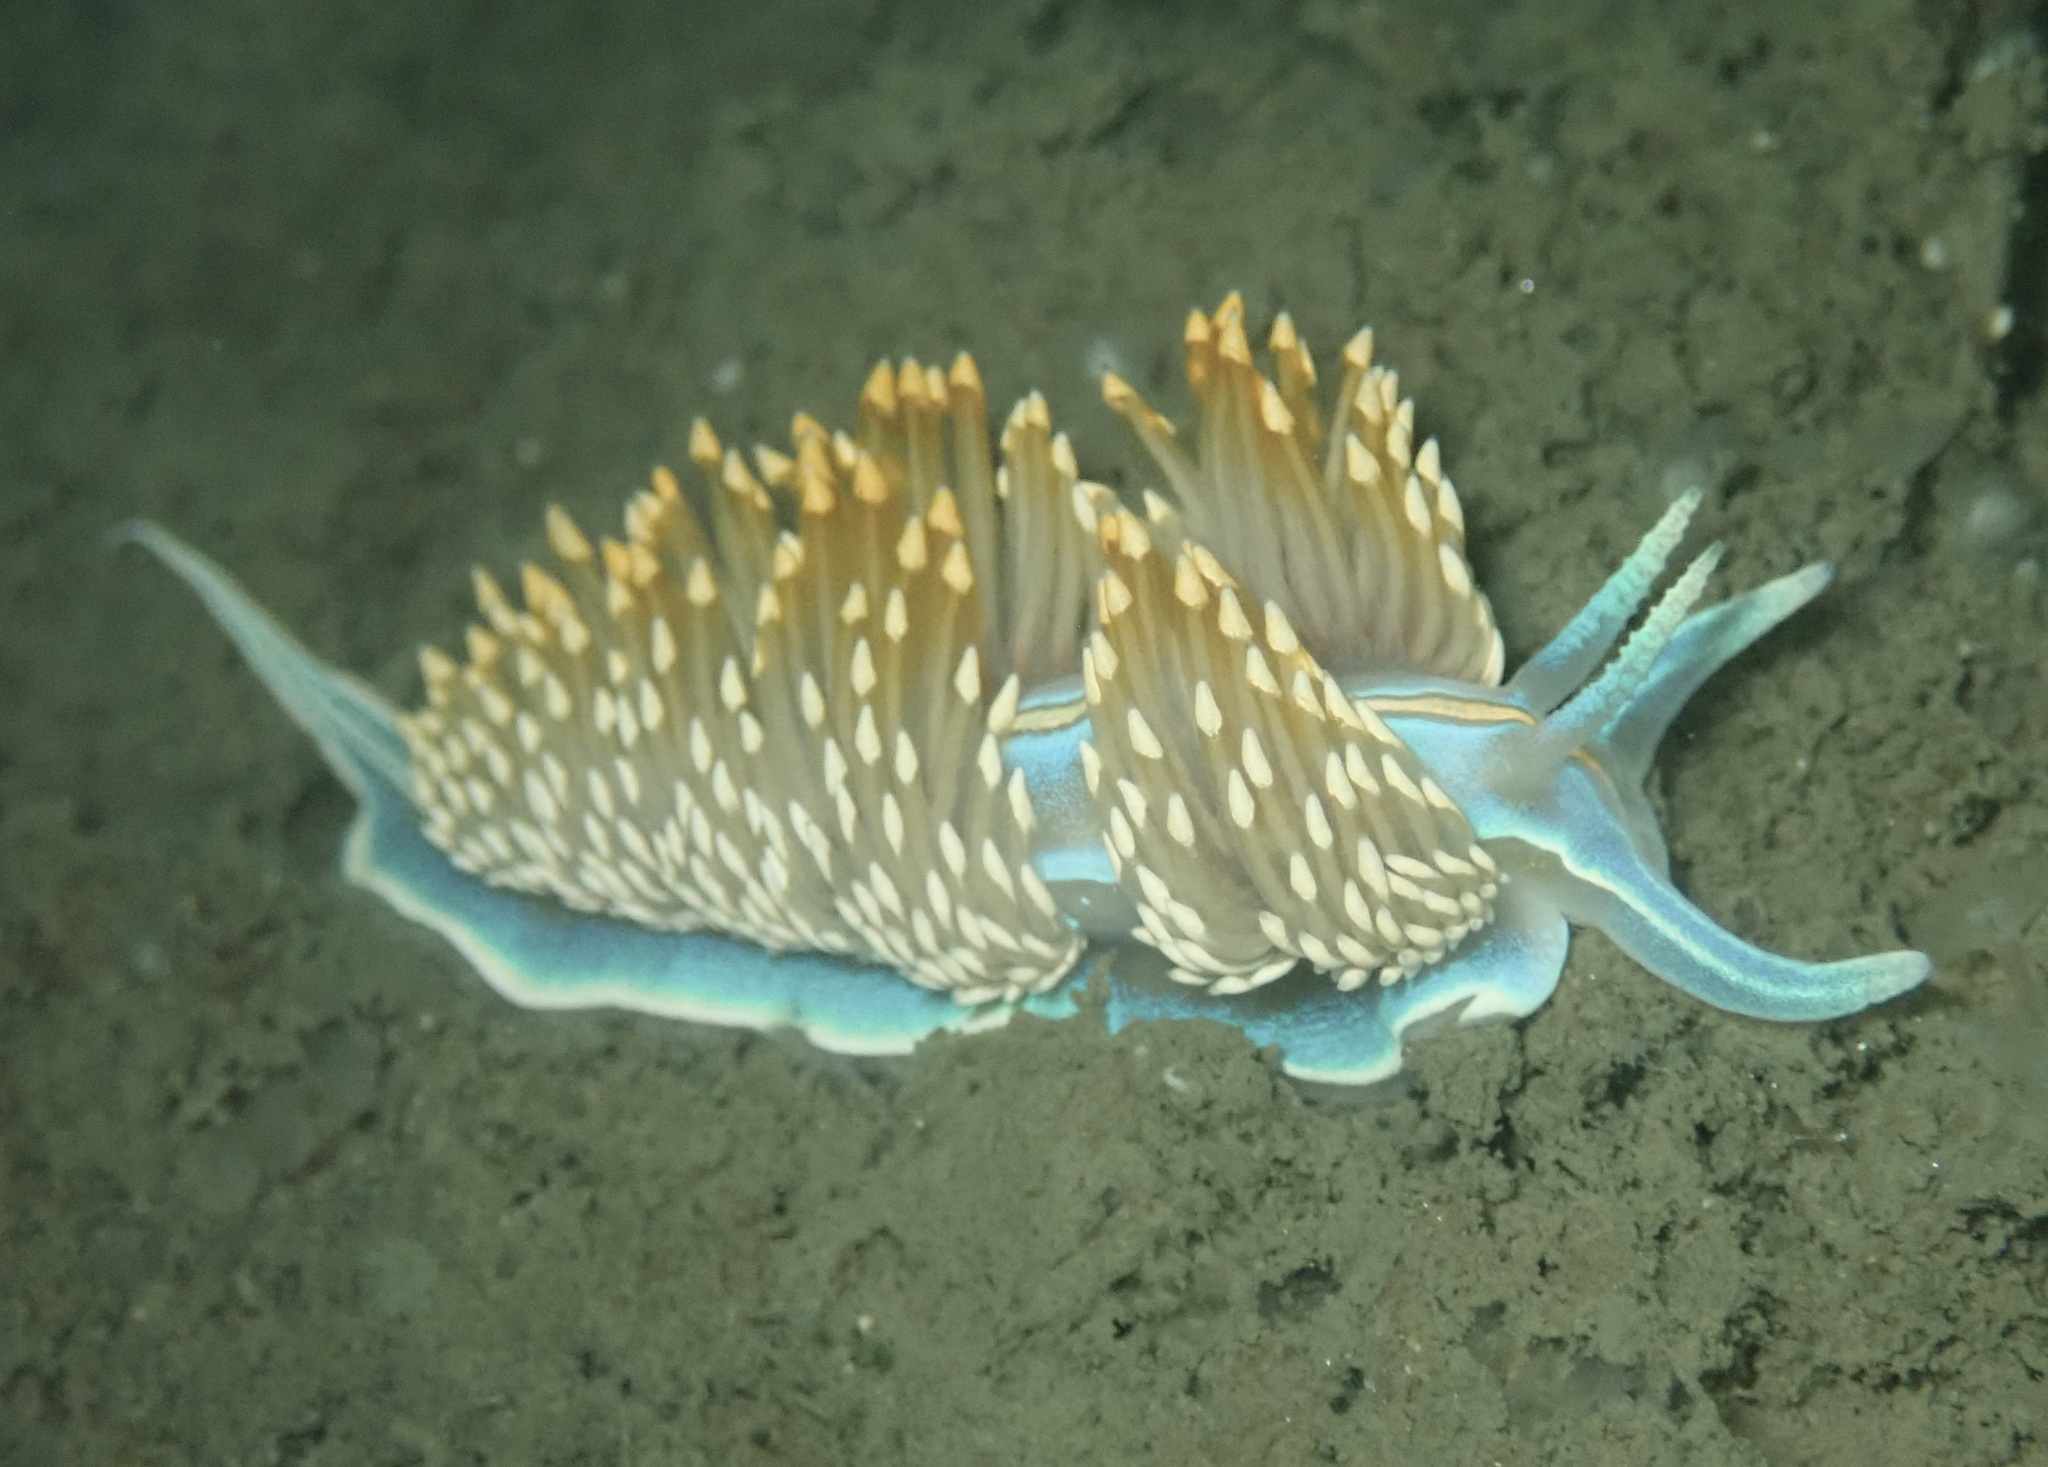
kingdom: Animalia
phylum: Mollusca
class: Gastropoda
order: Nudibranchia
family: Myrrhinidae
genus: Hermissenda
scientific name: Hermissenda opalescens
